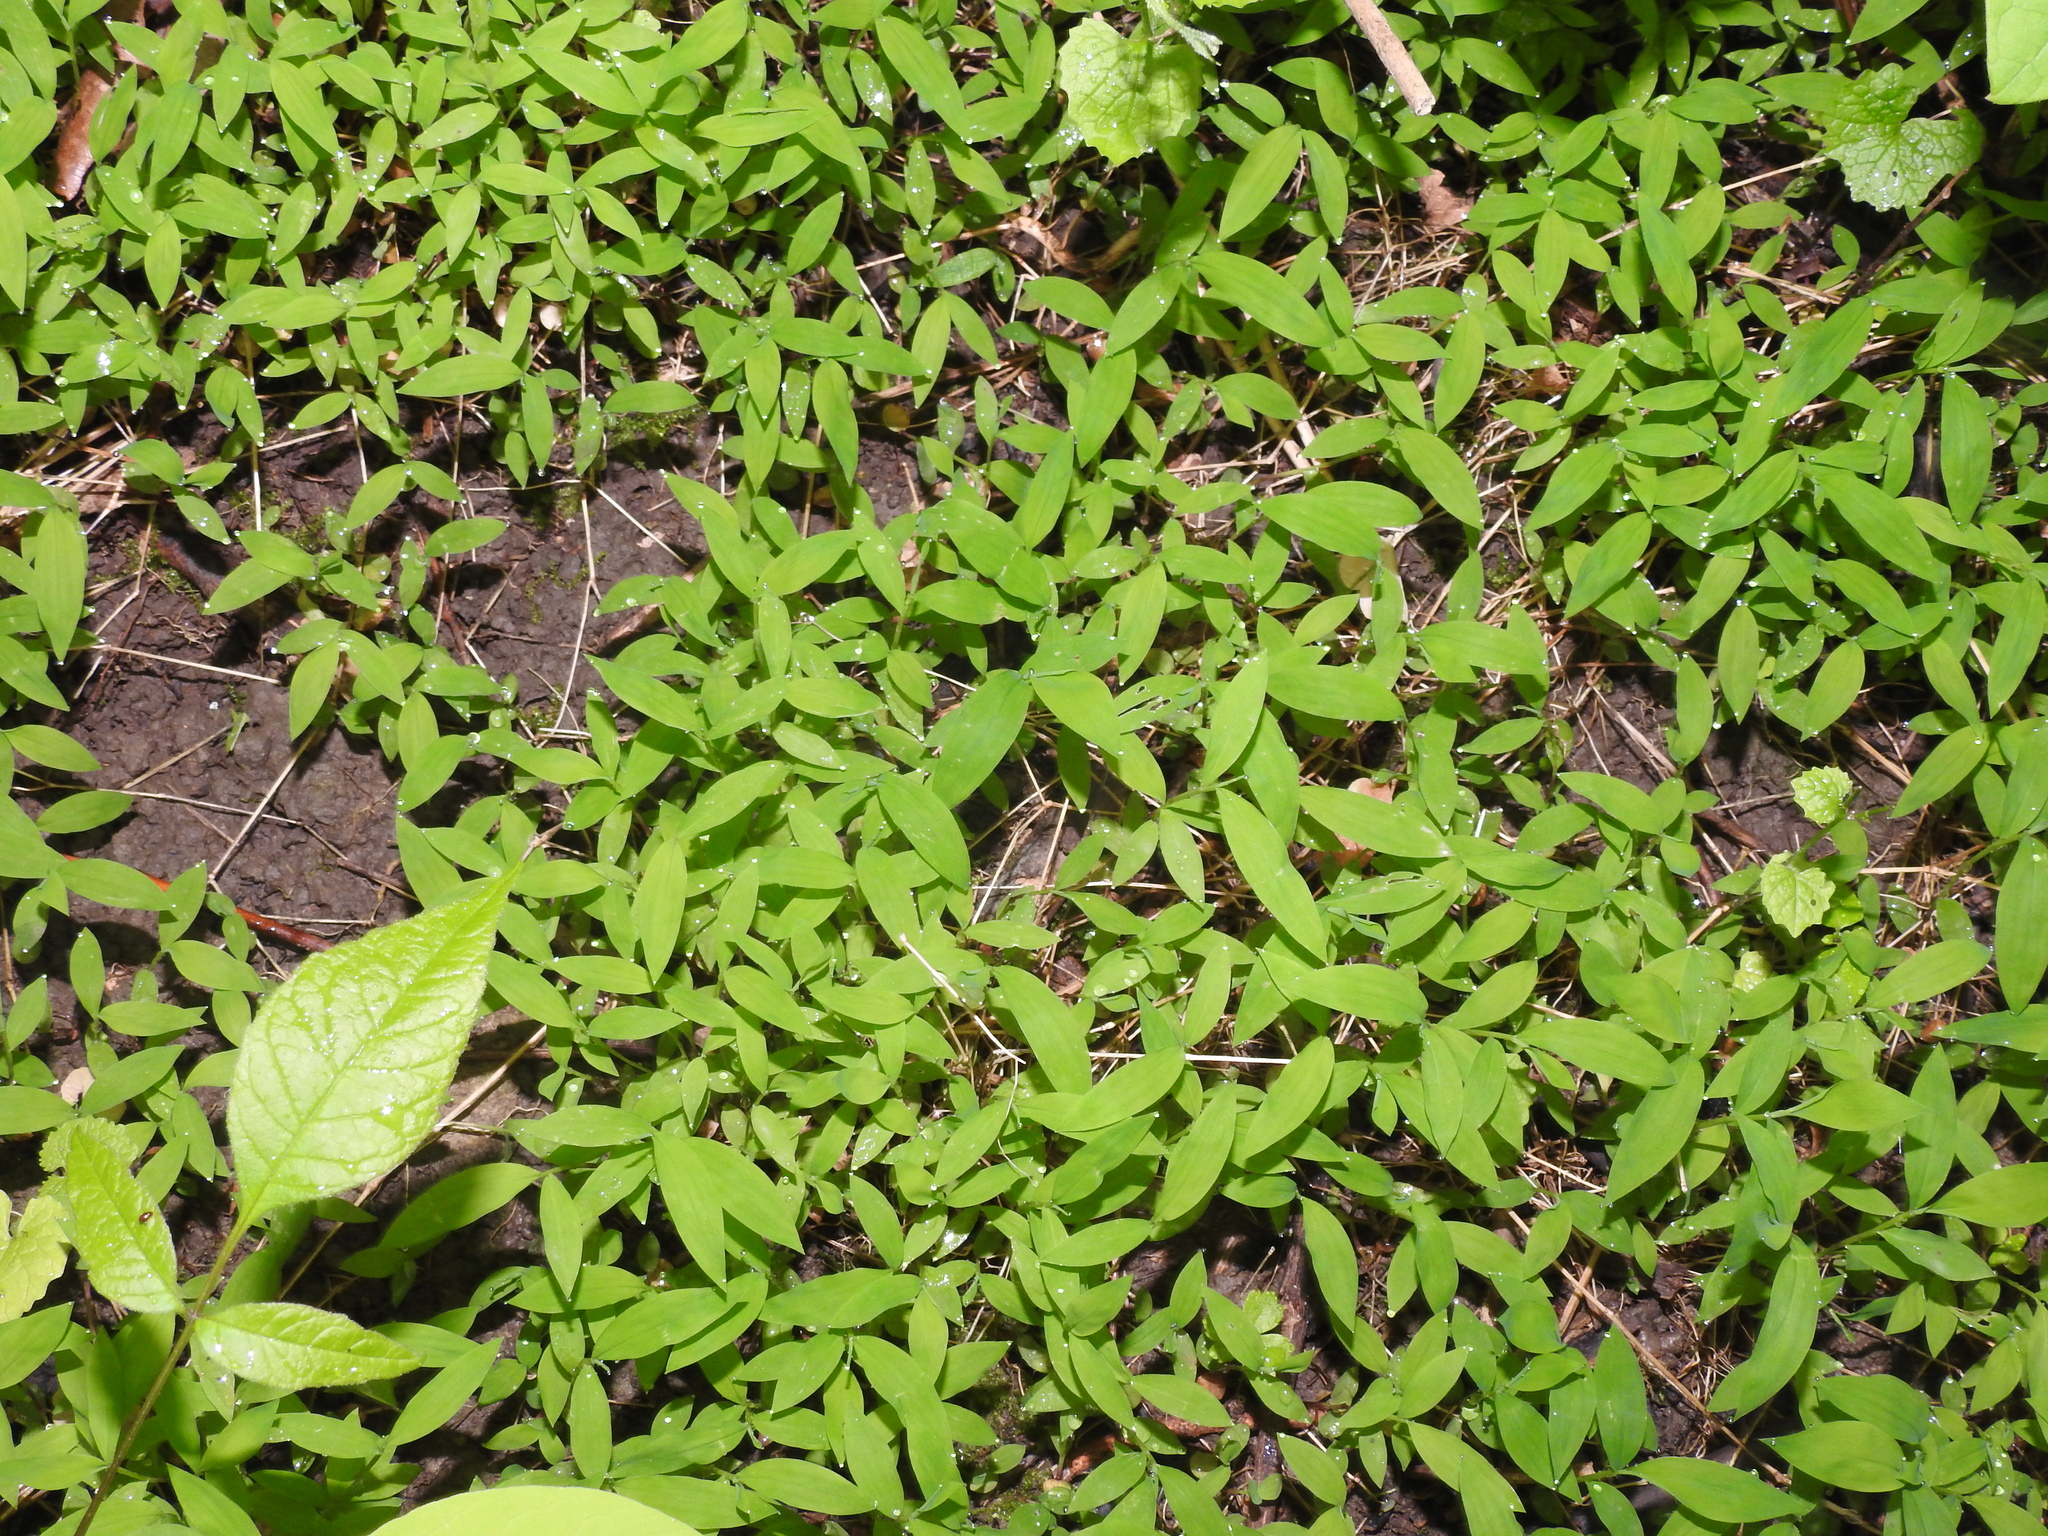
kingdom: Plantae
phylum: Tracheophyta
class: Liliopsida
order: Poales
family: Poaceae
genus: Microstegium
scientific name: Microstegium vimineum
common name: Japanese stiltgrass
